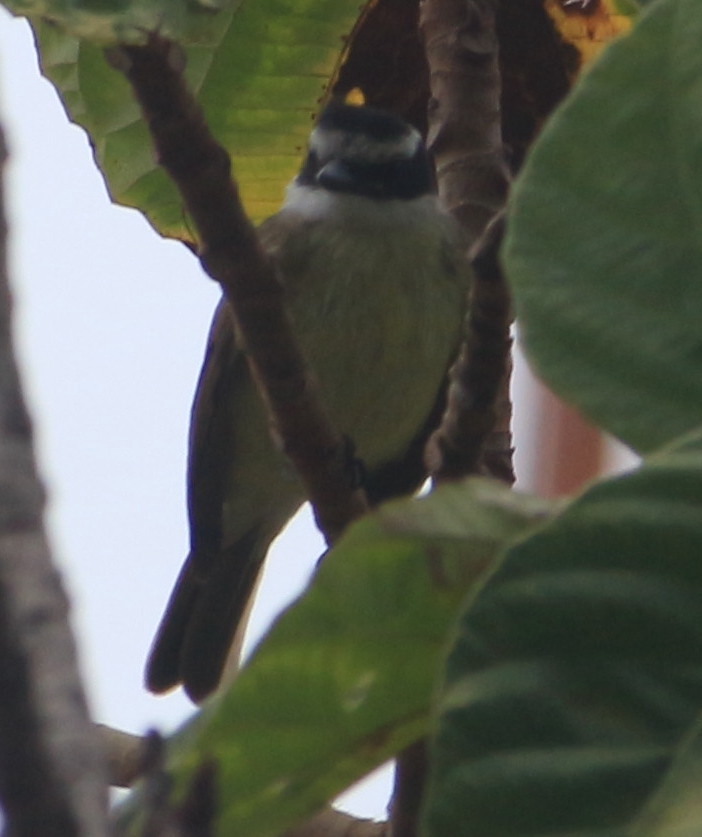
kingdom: Animalia
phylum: Chordata
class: Aves
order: Passeriformes
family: Tyrannidae
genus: Pitangus
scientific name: Pitangus sulphuratus
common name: Great kiskadee
